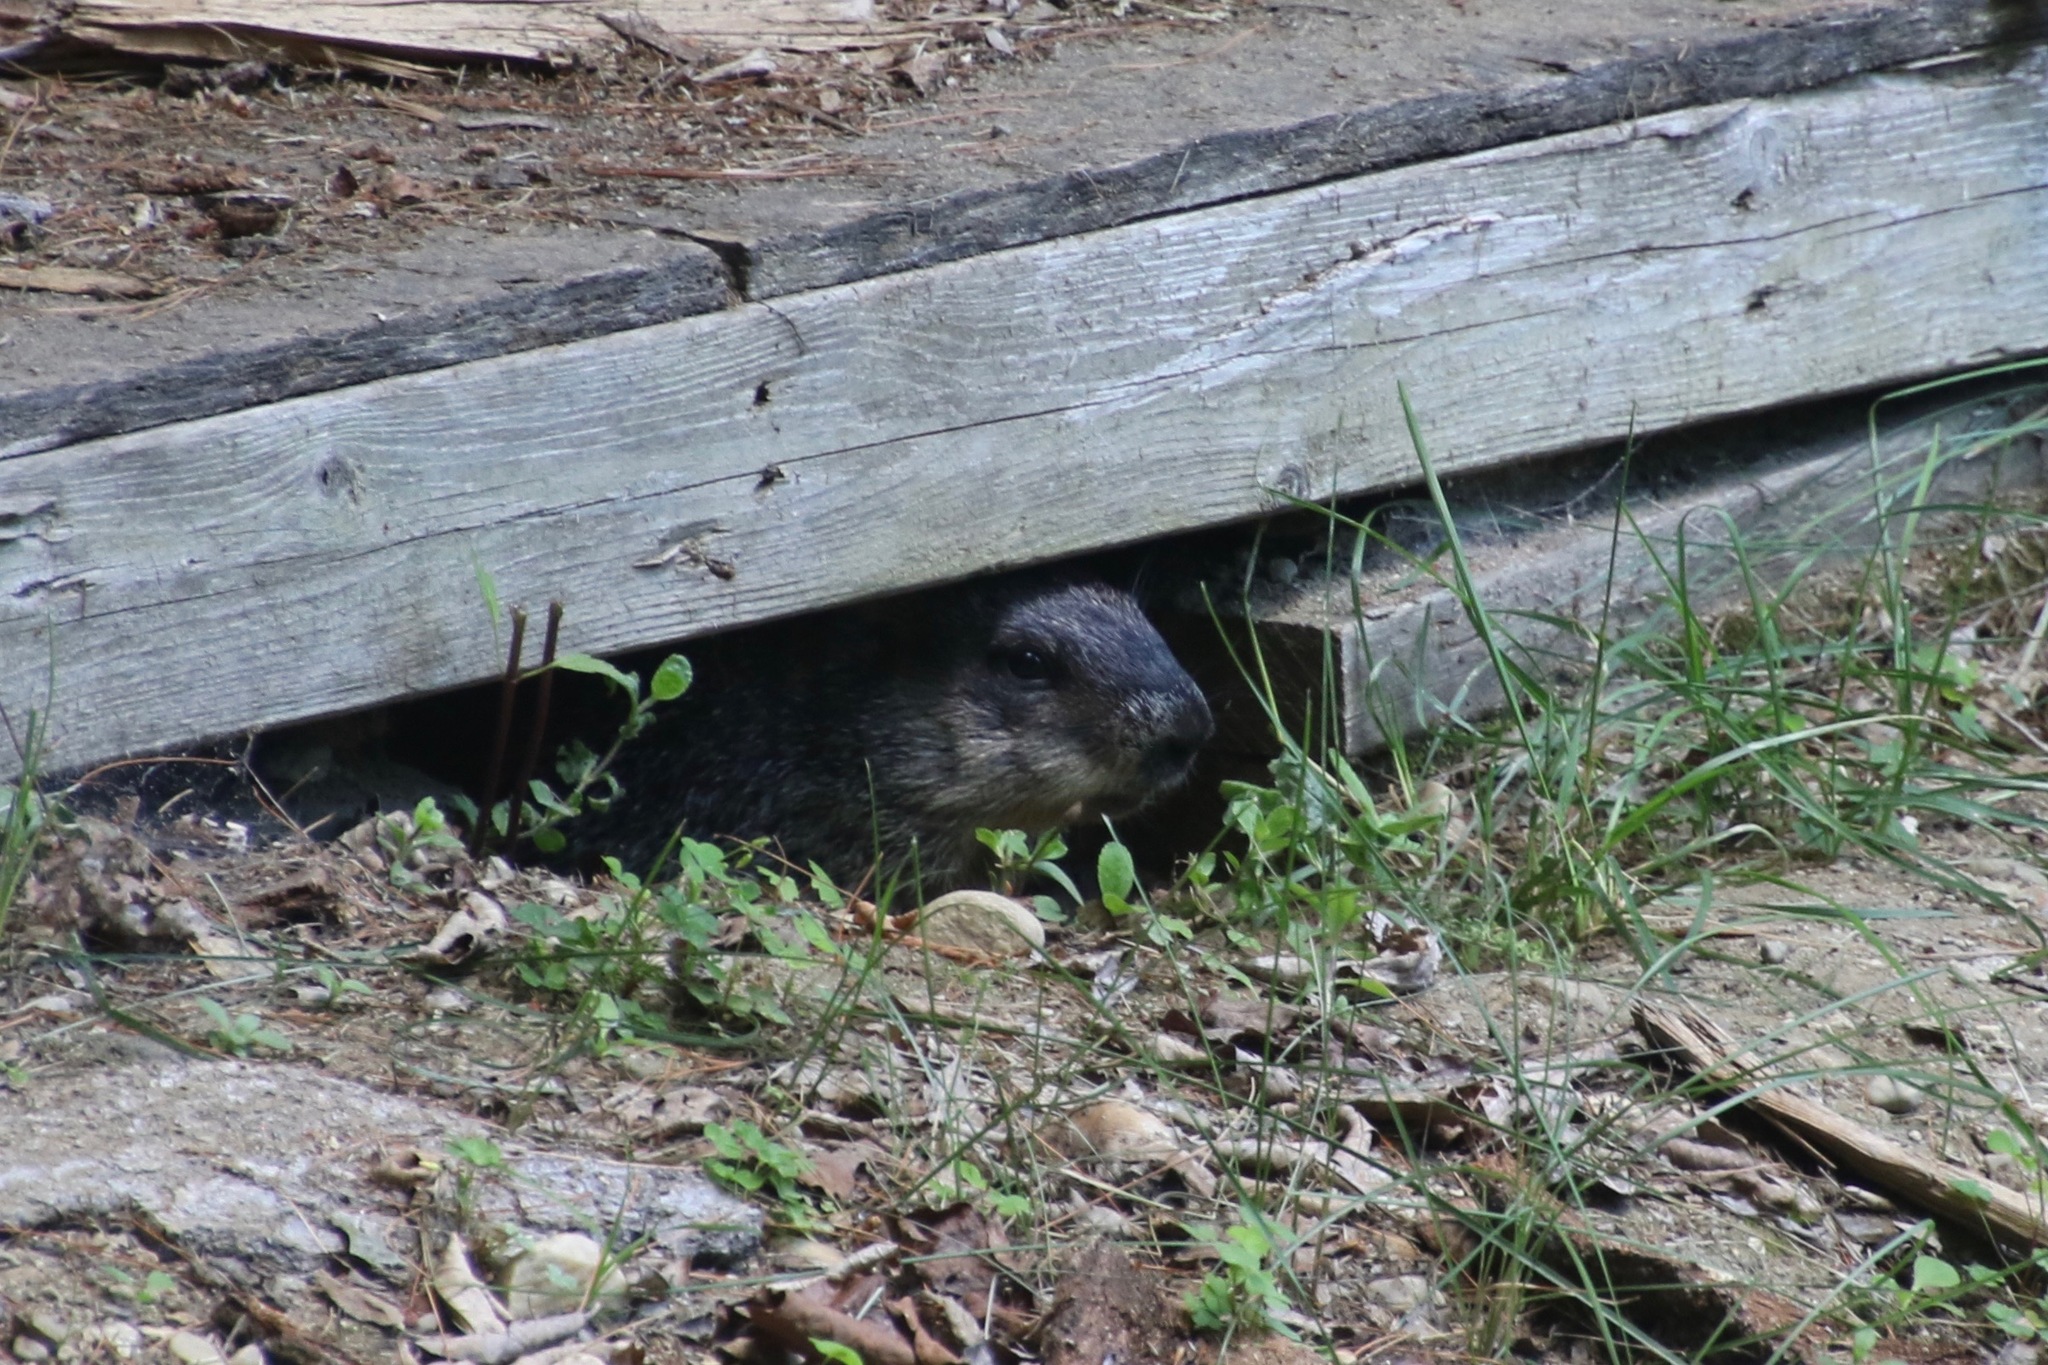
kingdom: Animalia
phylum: Chordata
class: Mammalia
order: Rodentia
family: Sciuridae
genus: Marmota
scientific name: Marmota monax
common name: Groundhog
